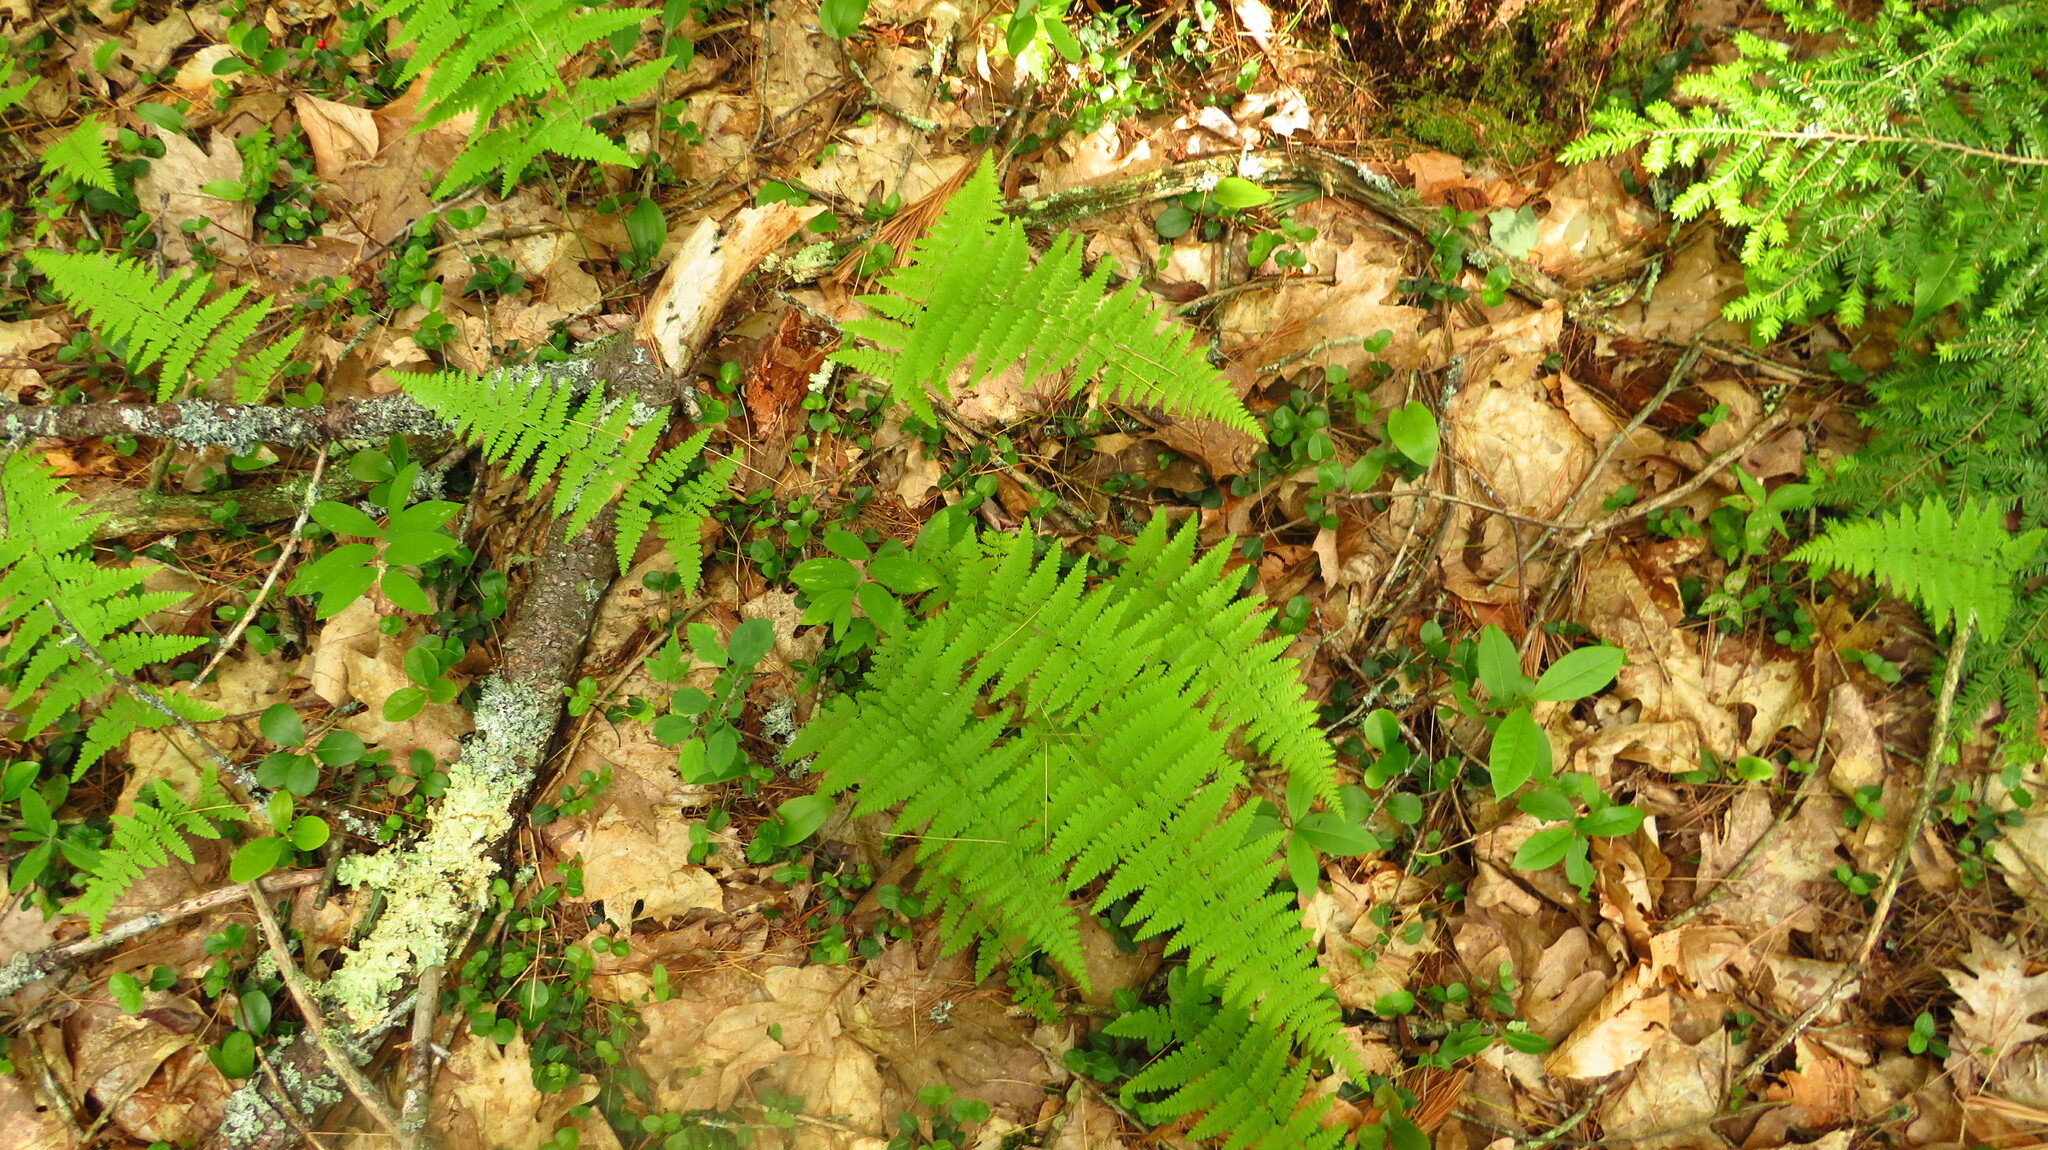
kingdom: Plantae
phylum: Tracheophyta
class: Polypodiopsida
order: Polypodiales
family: Dennstaedtiaceae
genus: Sitobolium
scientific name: Sitobolium punctilobum
